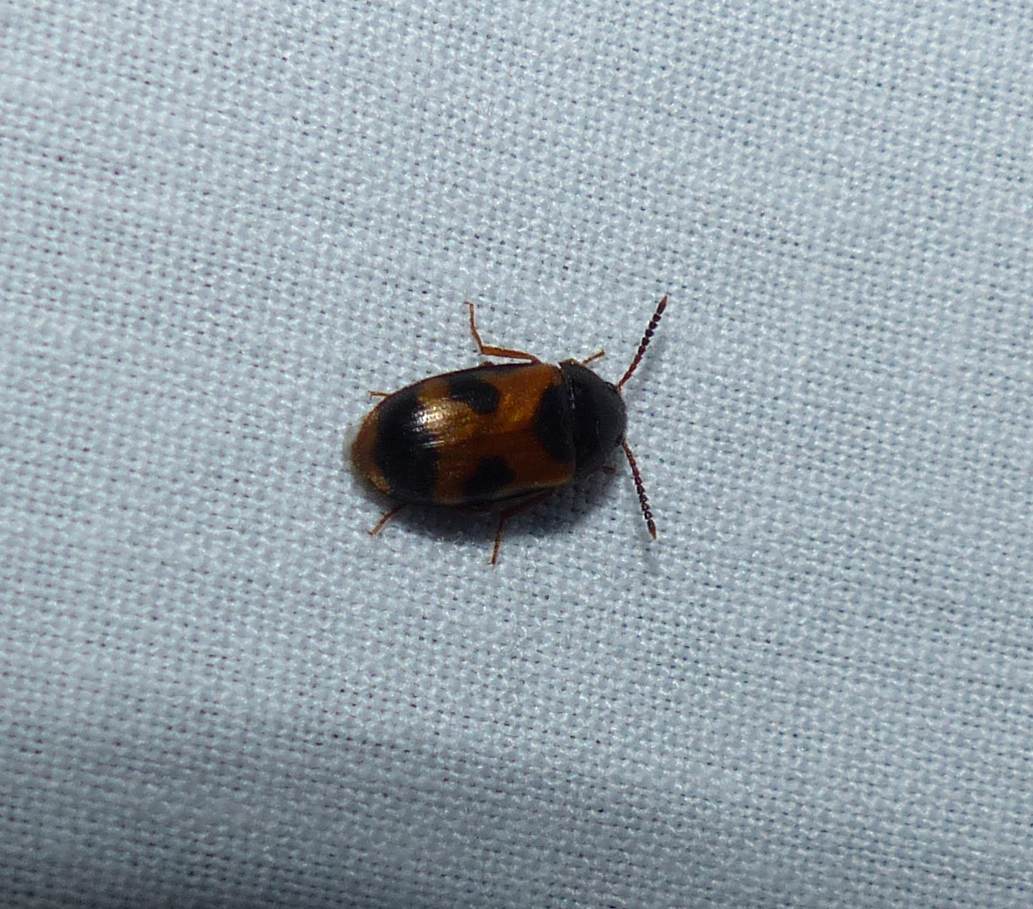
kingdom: Animalia
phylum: Arthropoda
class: Insecta
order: Coleoptera
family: Mycetophagidae
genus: Mycetophagus
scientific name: Mycetophagus punctatus
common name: Hairy fungus beetle
